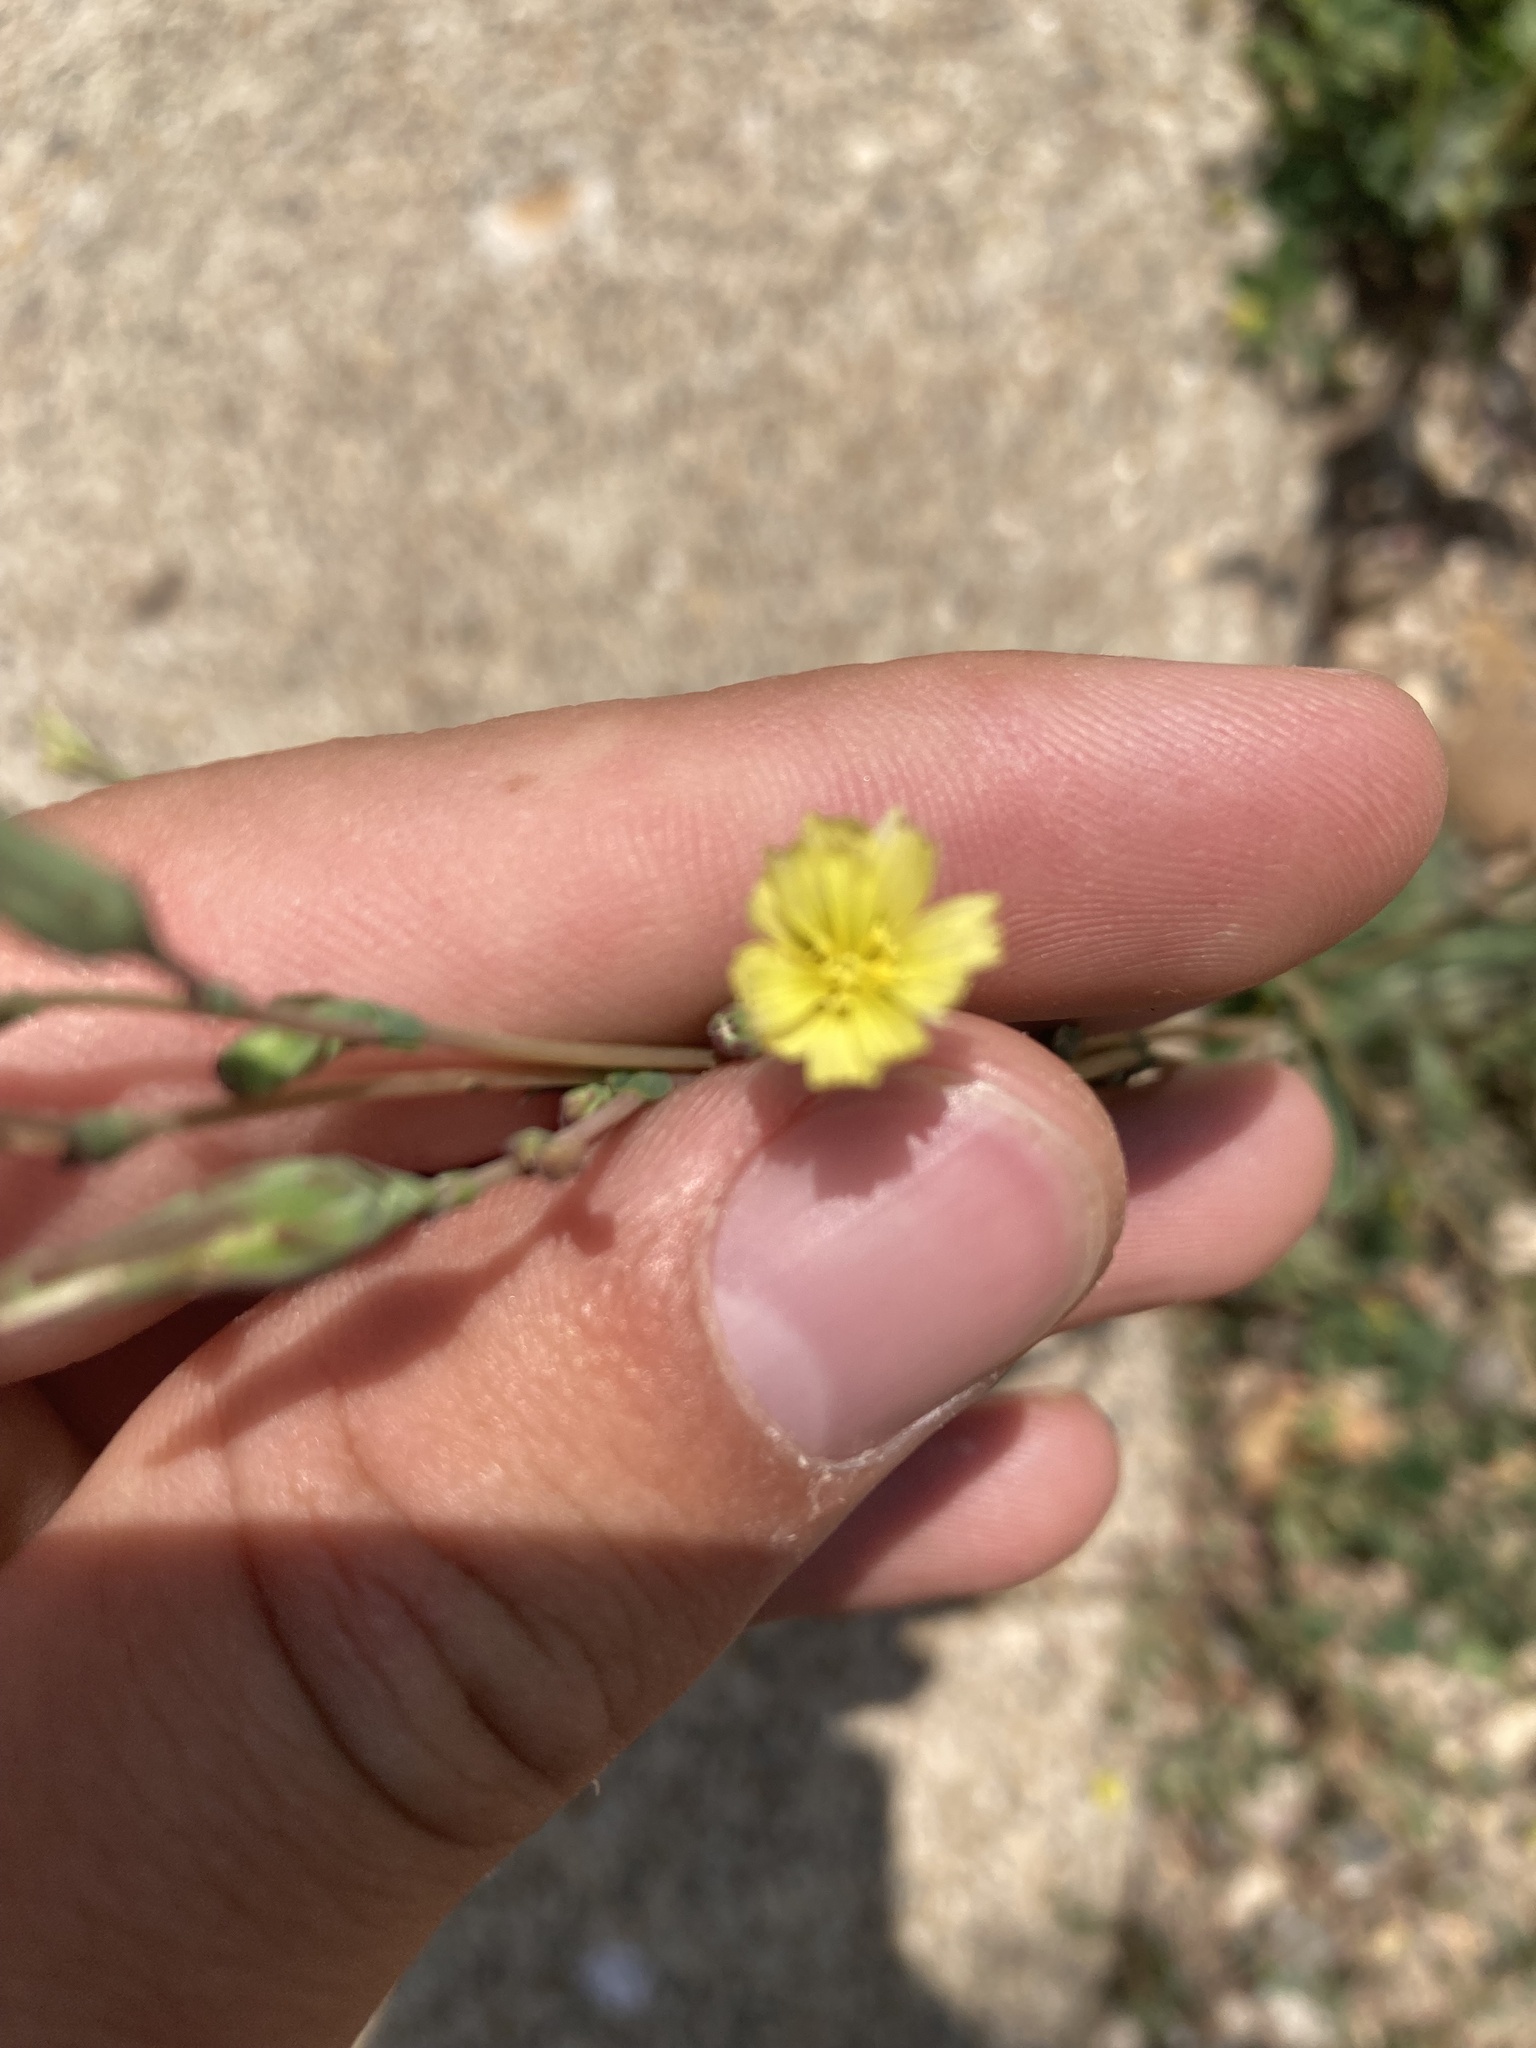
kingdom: Plantae
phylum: Tracheophyta
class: Magnoliopsida
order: Asterales
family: Asteraceae
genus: Lactuca
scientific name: Lactuca serriola
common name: Prickly lettuce
